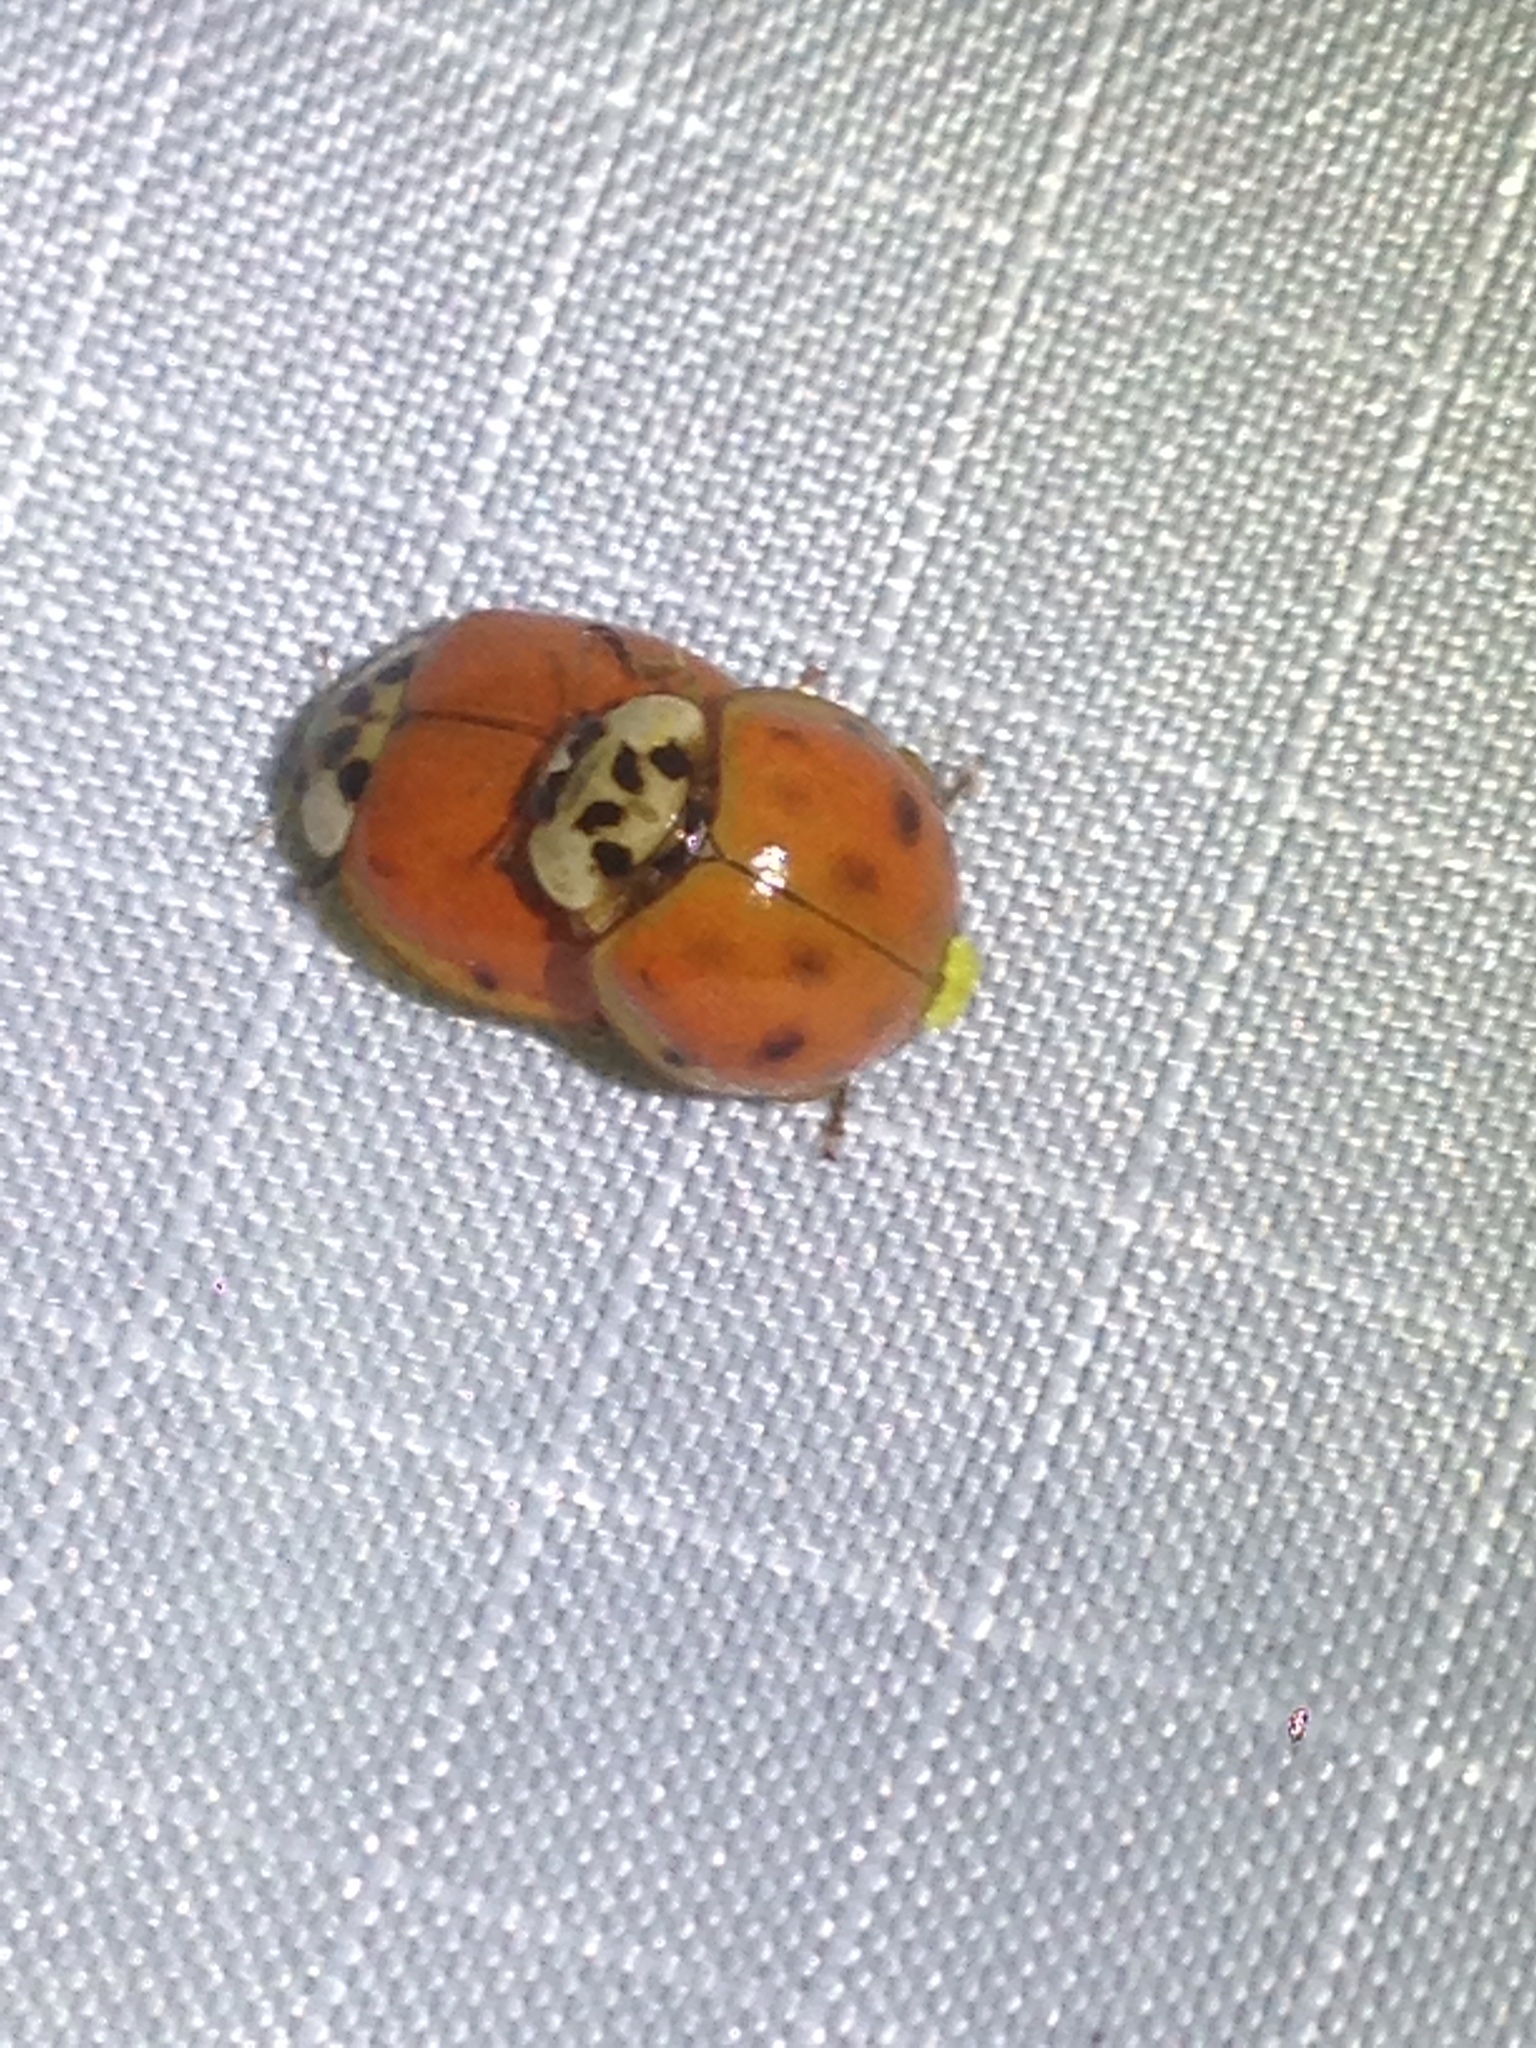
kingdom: Animalia
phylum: Arthropoda
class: Insecta
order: Coleoptera
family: Coccinellidae
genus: Harmonia
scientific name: Harmonia axyridis
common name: Harlequin ladybird
